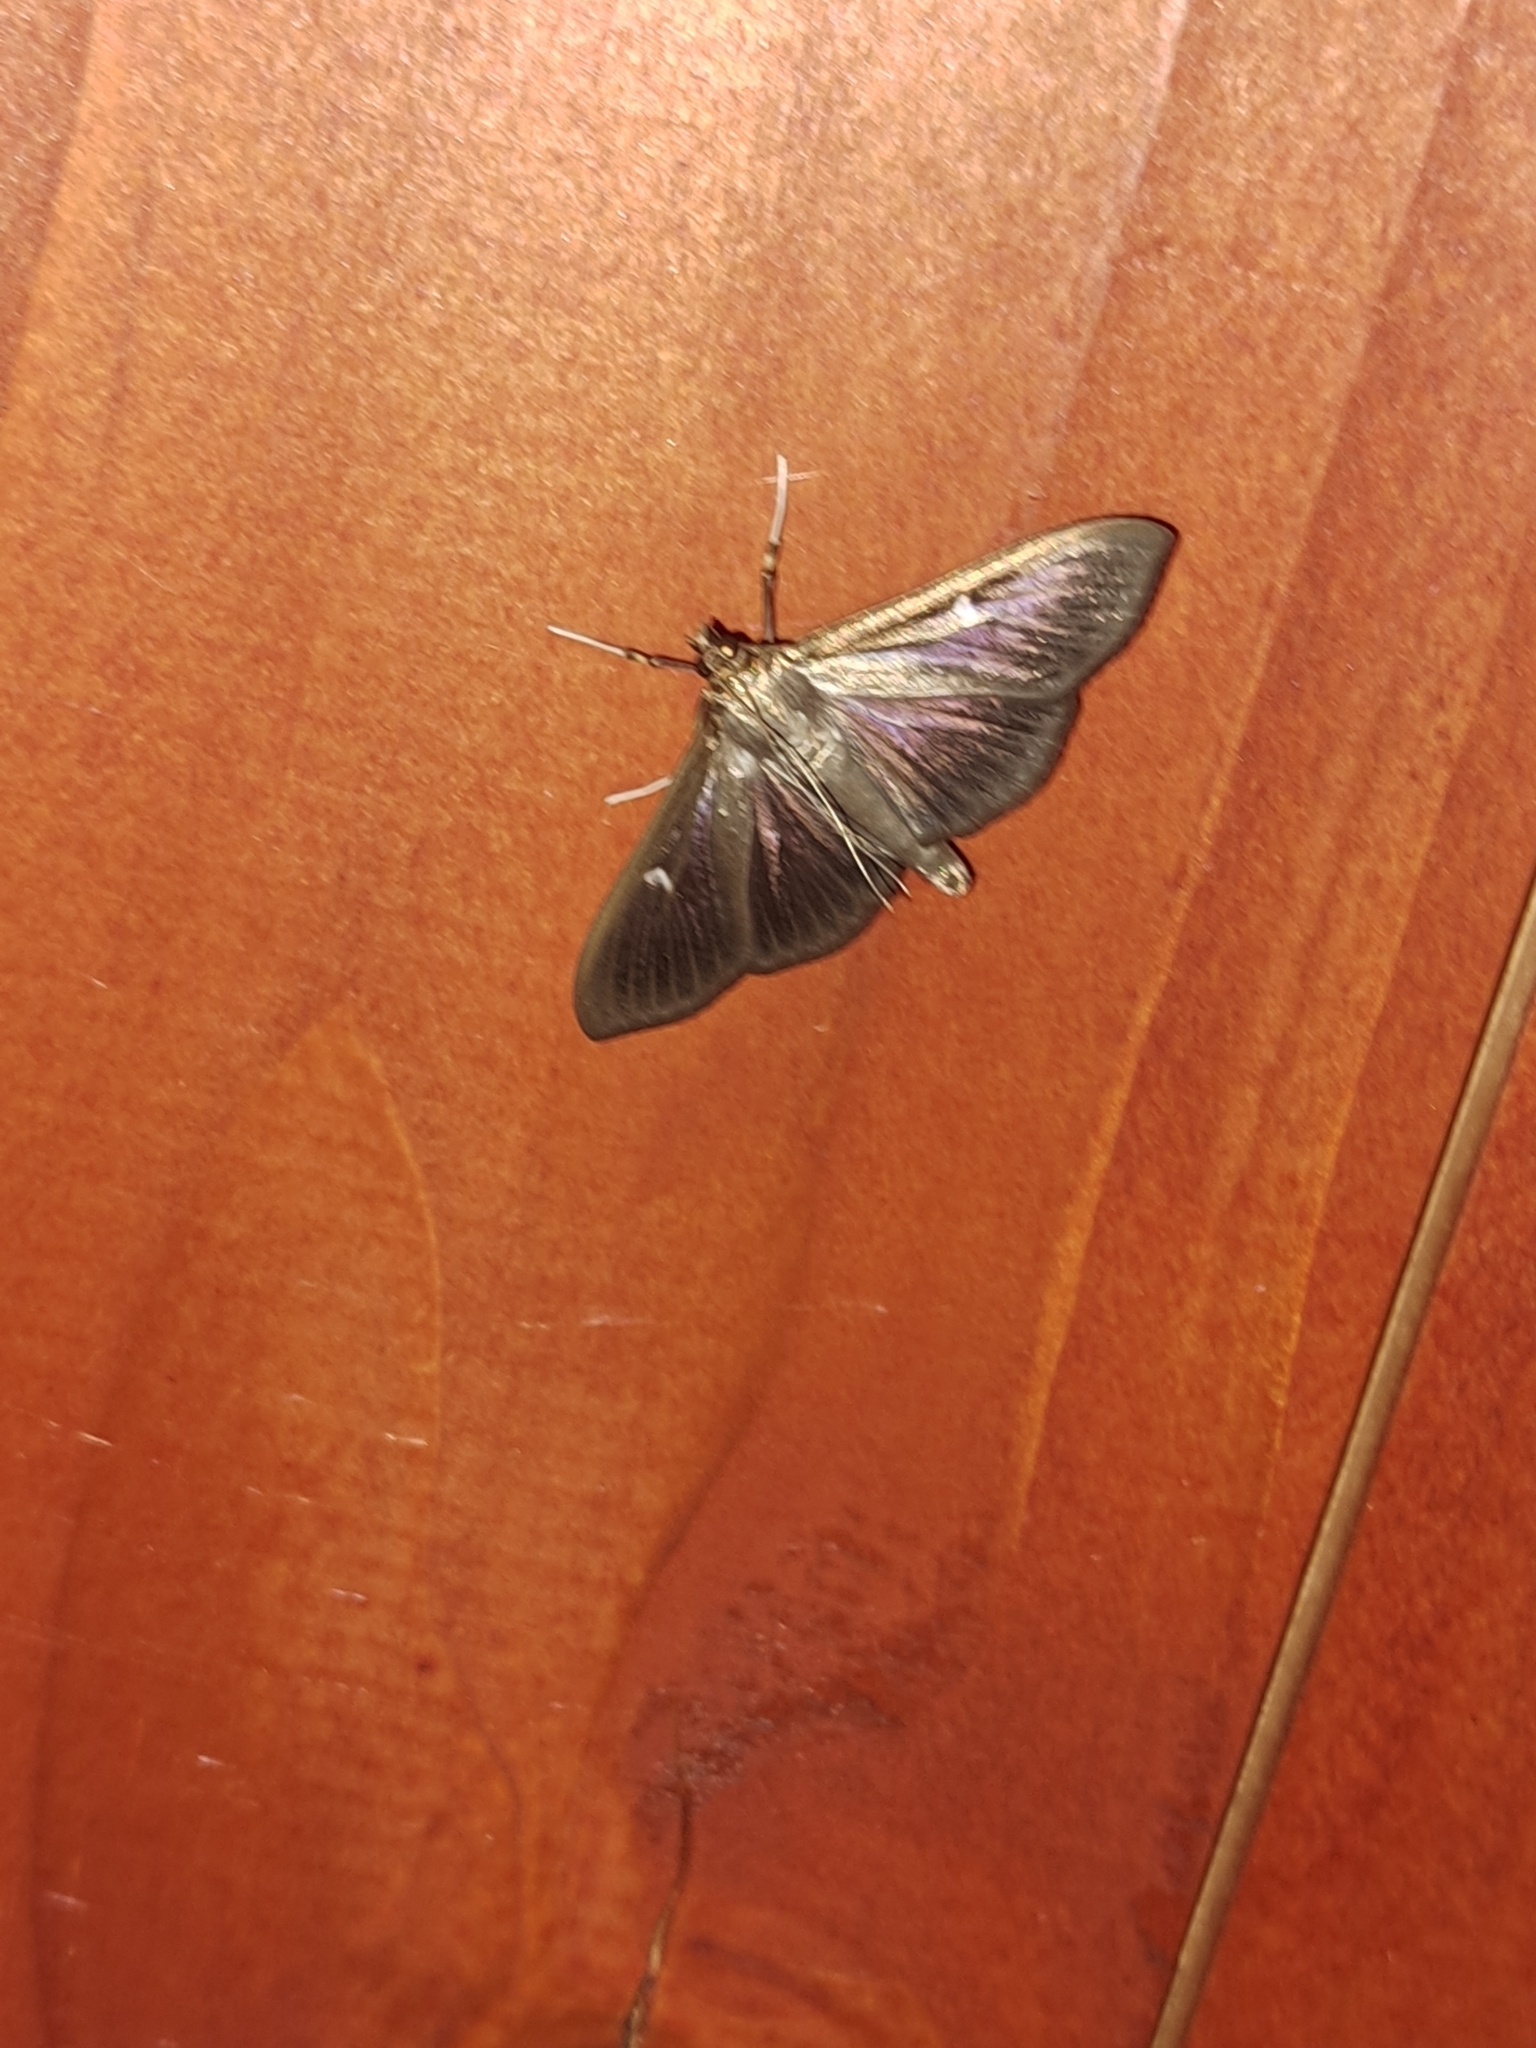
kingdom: Animalia
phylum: Arthropoda
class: Insecta
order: Lepidoptera
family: Crambidae
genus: Cydalima
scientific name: Cydalima perspectalis
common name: Box tree moth
